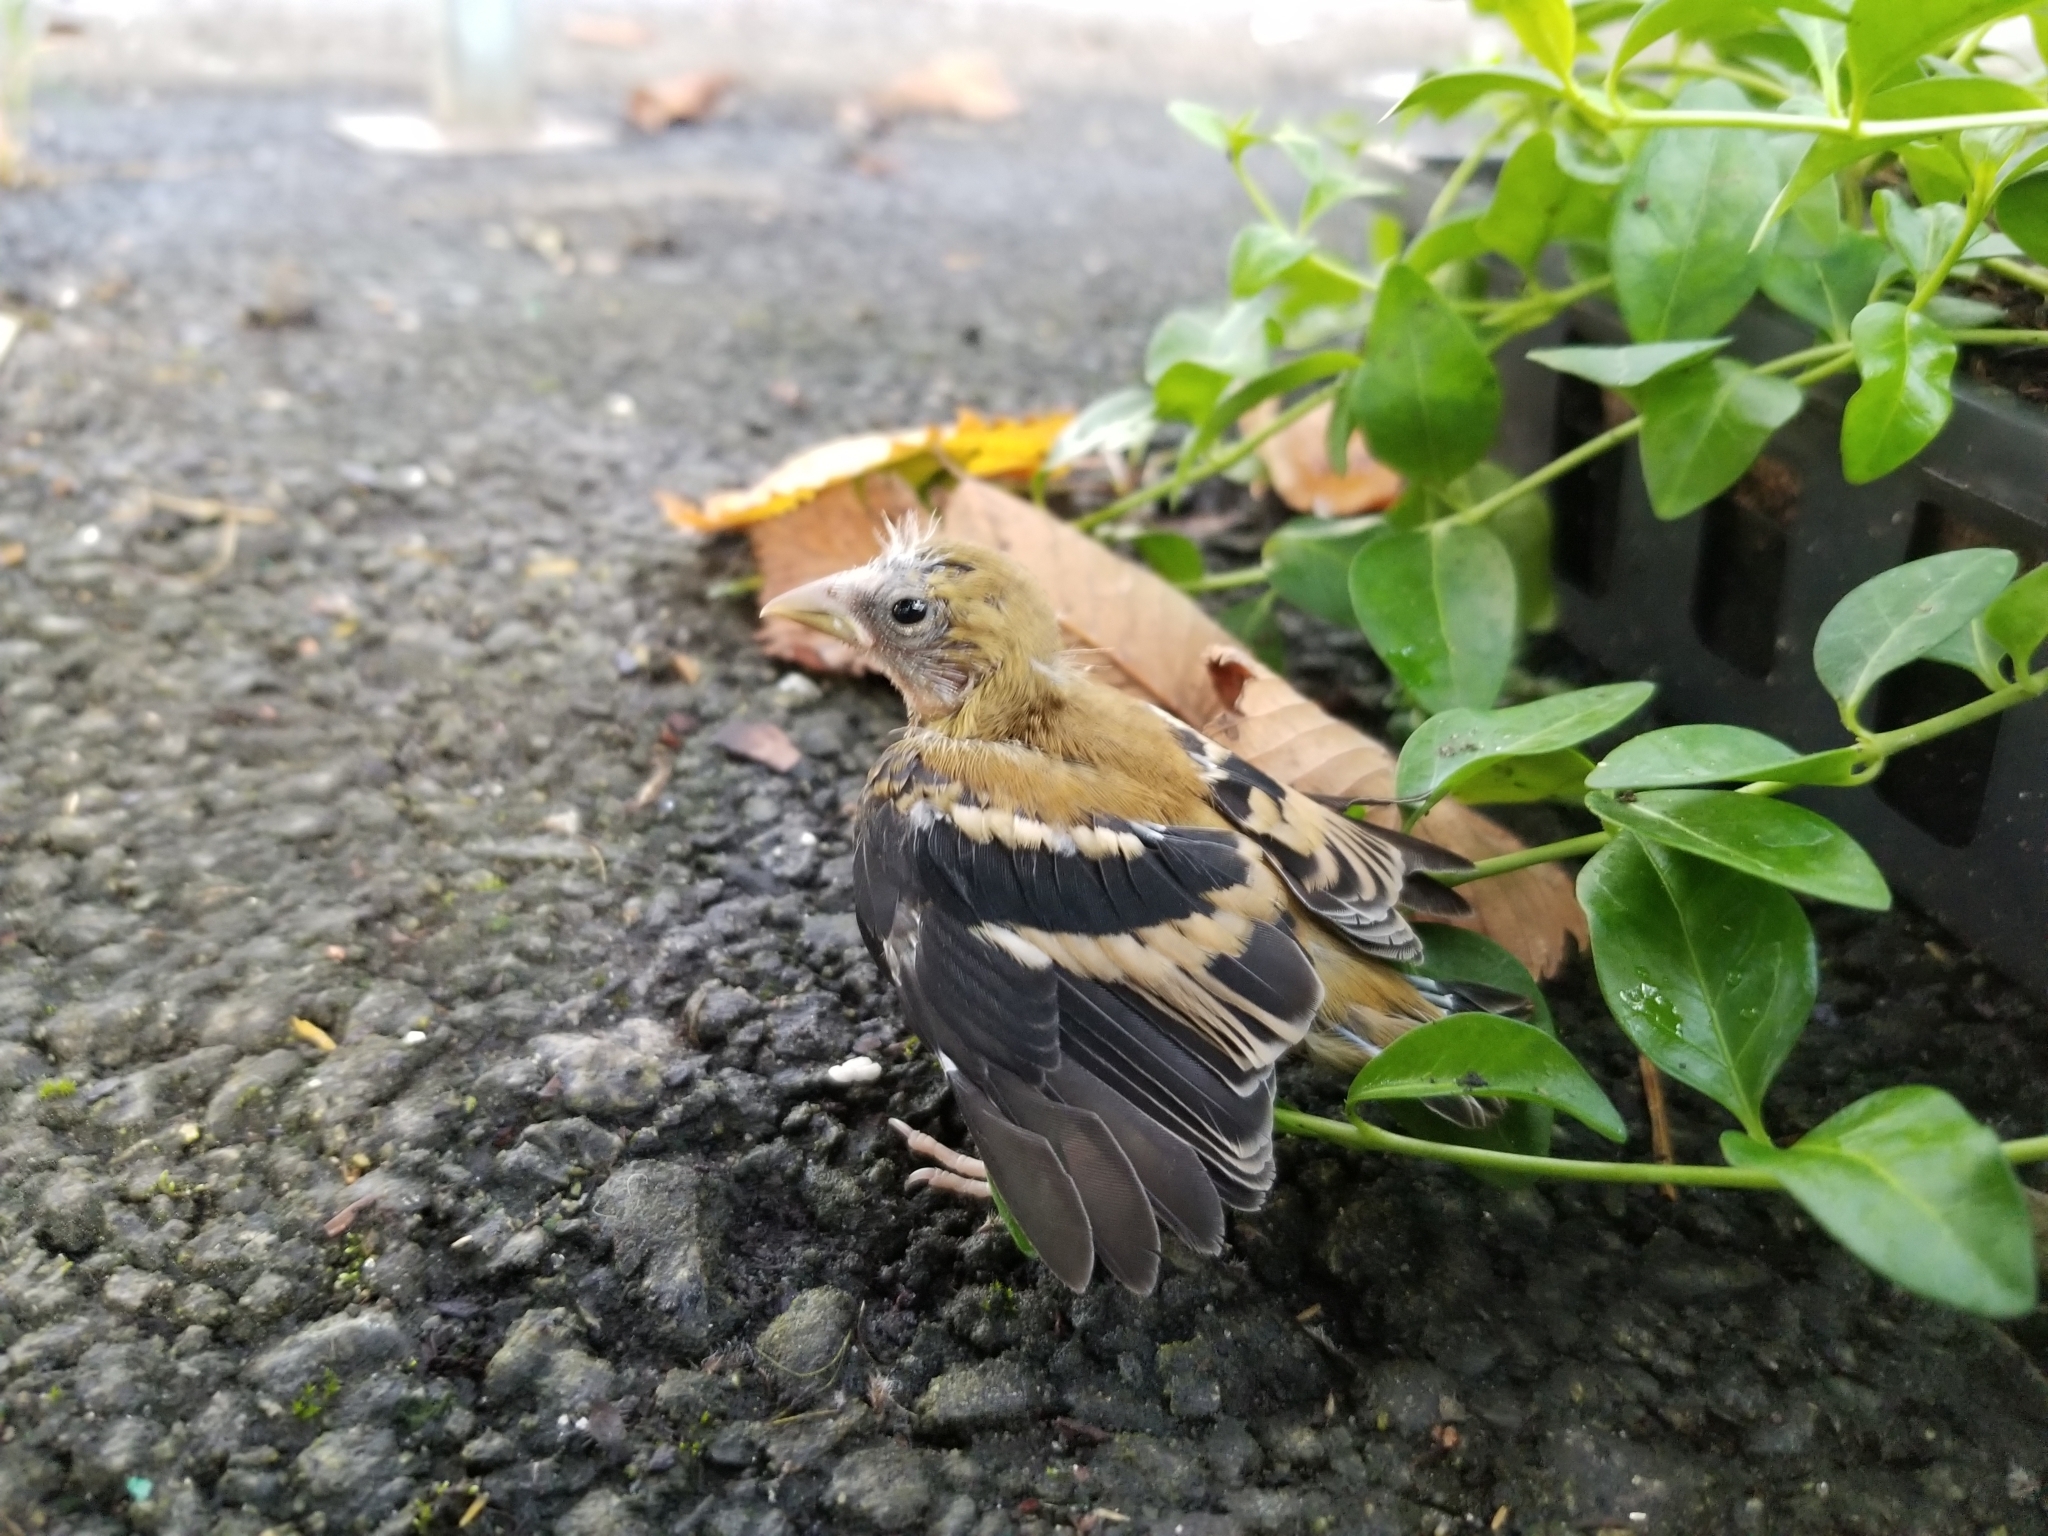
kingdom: Animalia
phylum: Chordata
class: Aves
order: Passeriformes
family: Fringillidae
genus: Spinus
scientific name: Spinus tristis
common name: American goldfinch
